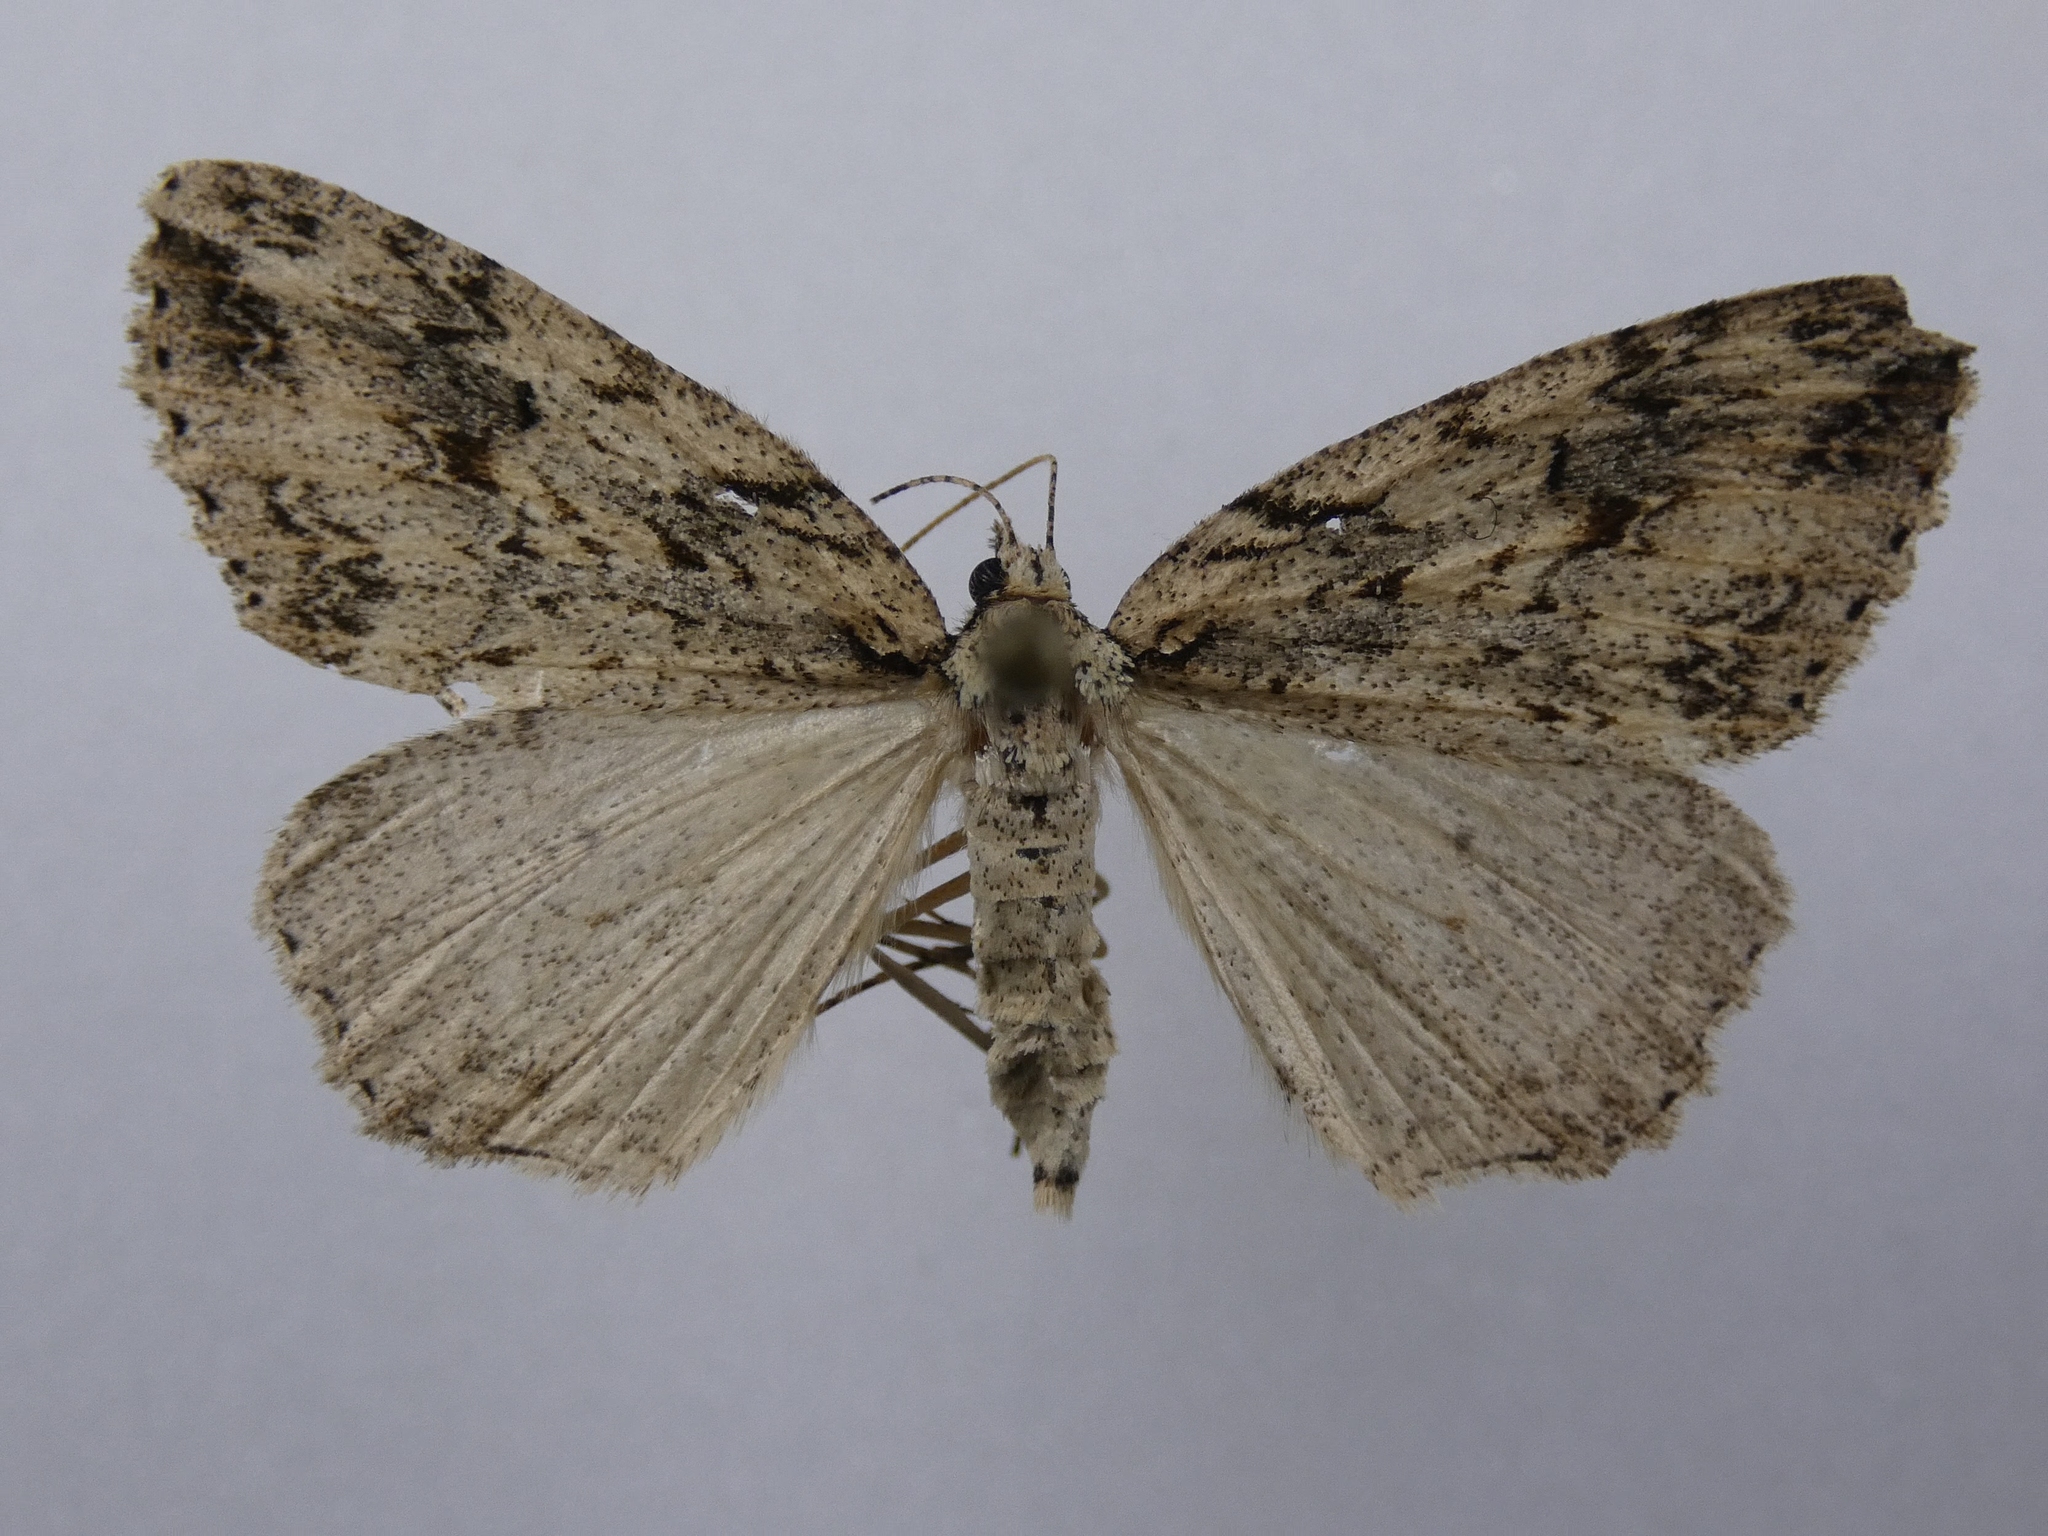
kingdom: Animalia
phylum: Arthropoda
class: Insecta
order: Lepidoptera
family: Geometridae
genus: Pseudocoremia
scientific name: Pseudocoremia rudisata
